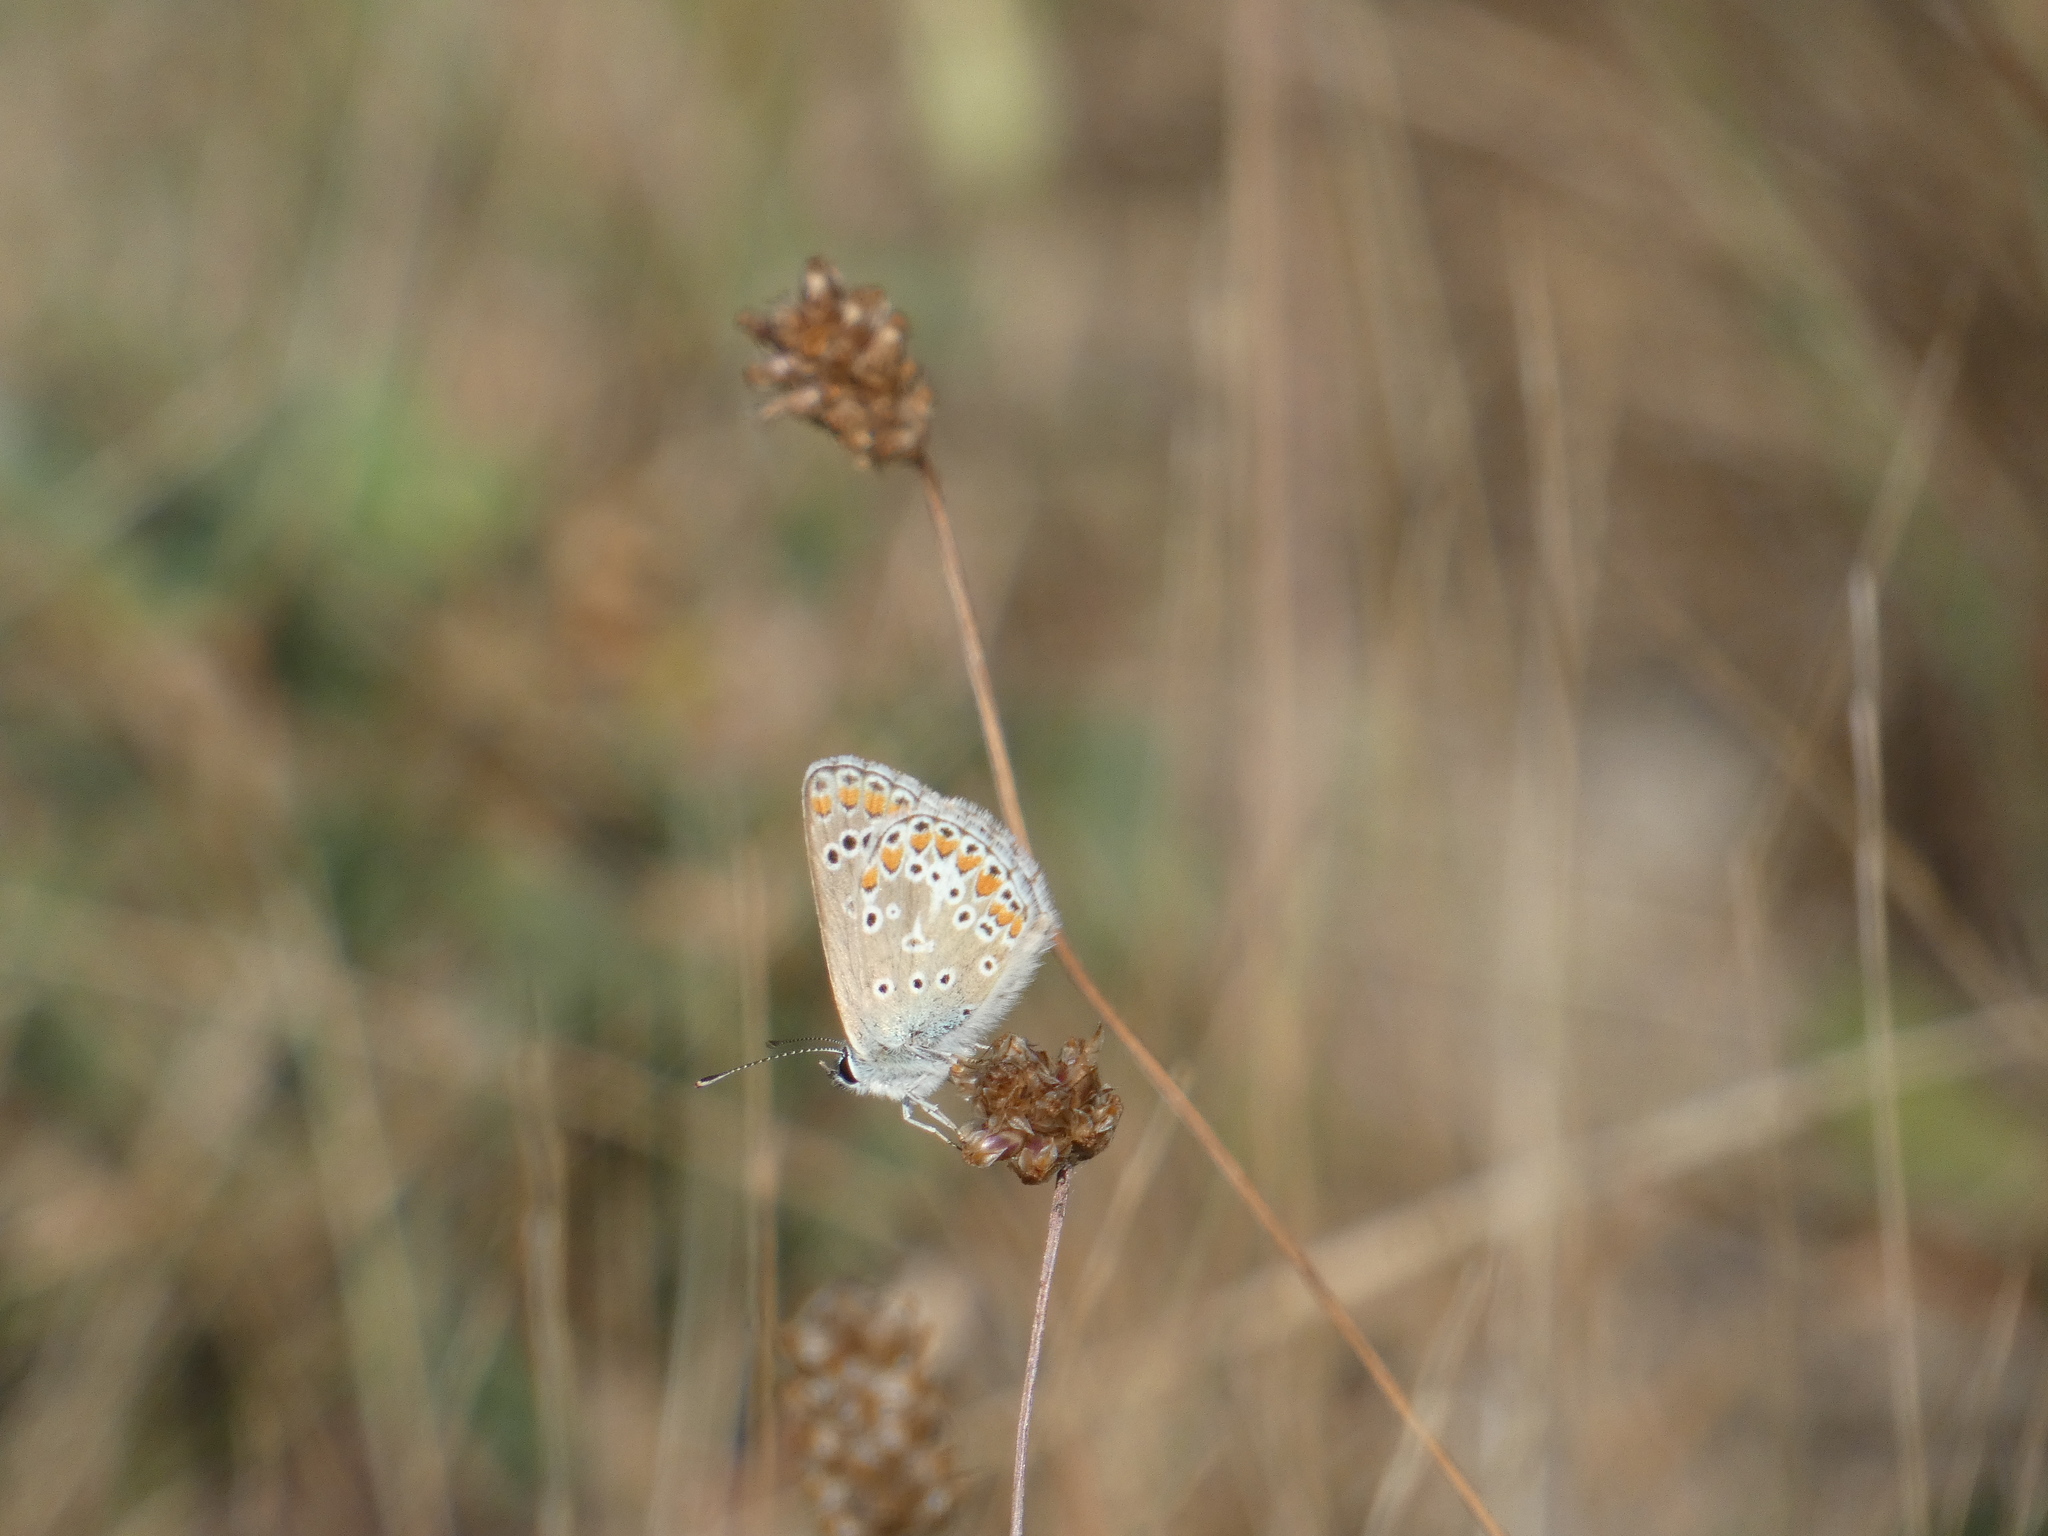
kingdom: Animalia
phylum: Arthropoda
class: Insecta
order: Lepidoptera
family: Lycaenidae
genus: Aricia
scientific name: Aricia agestis
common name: Brown argus
